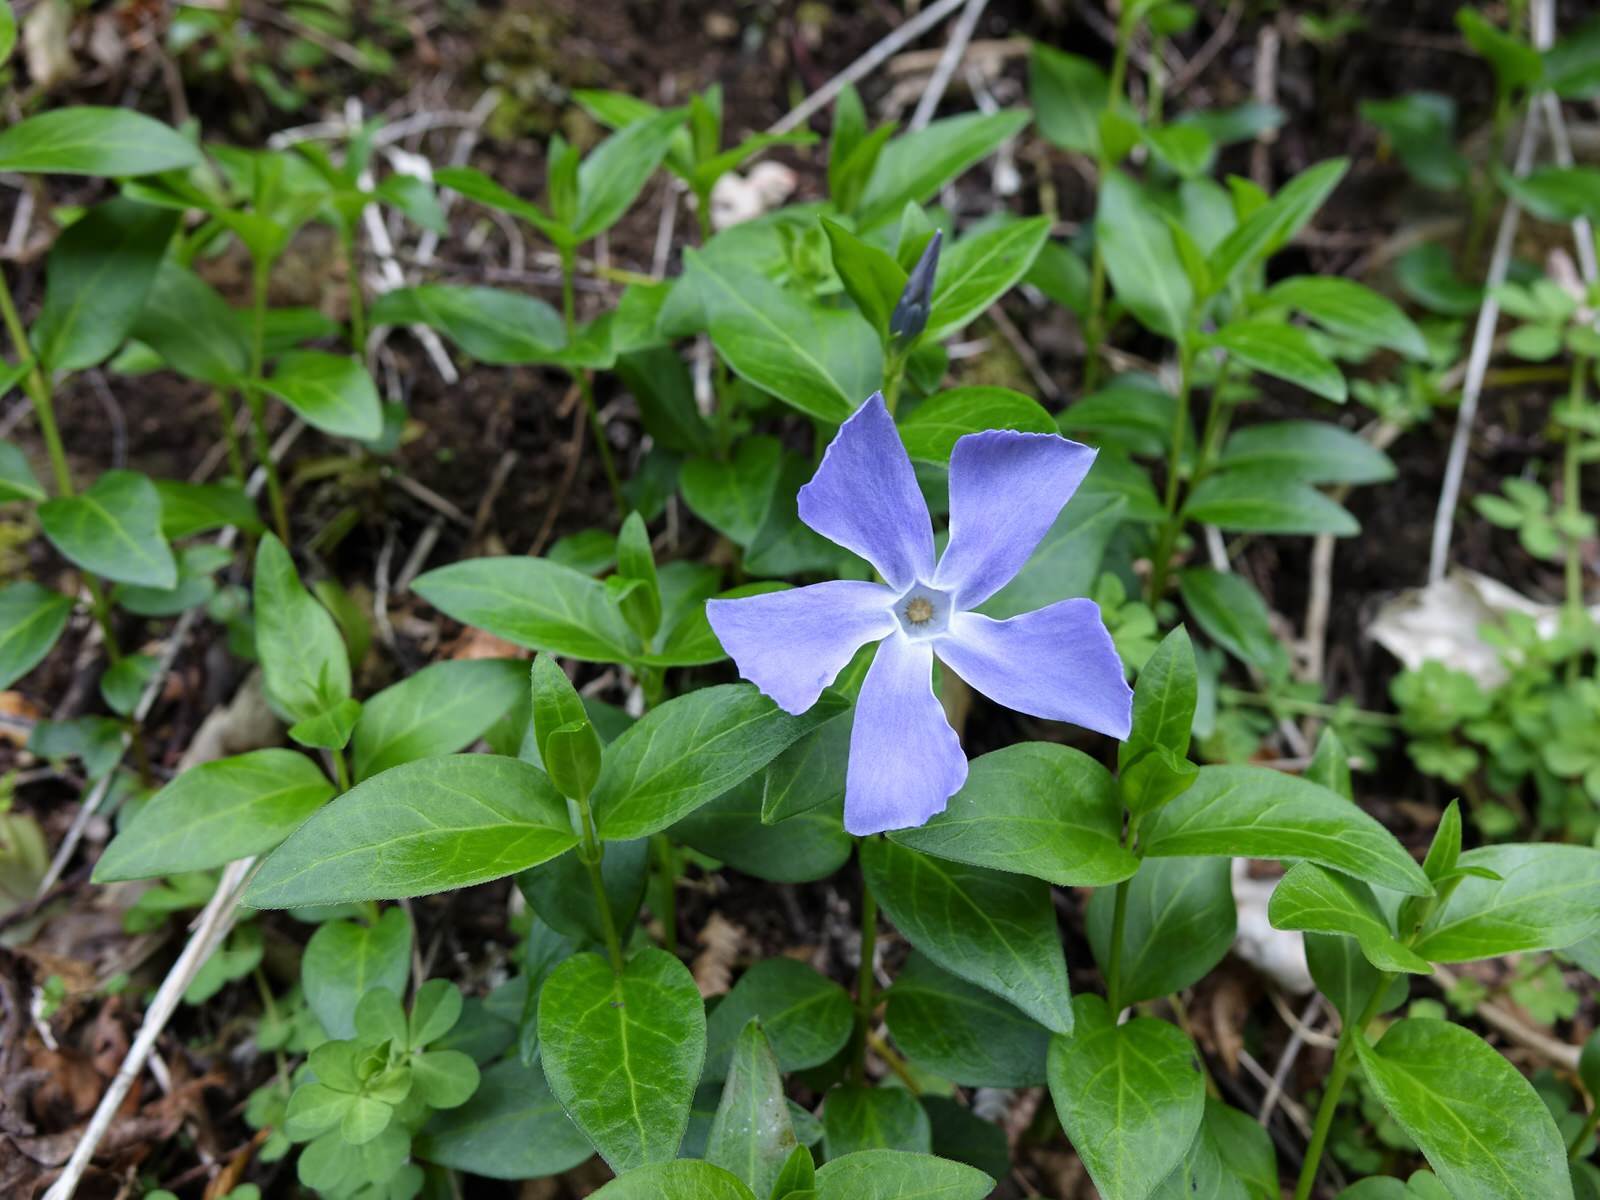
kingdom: Plantae
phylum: Tracheophyta
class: Magnoliopsida
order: Gentianales
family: Apocynaceae
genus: Vinca
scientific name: Vinca major
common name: Greater periwinkle
